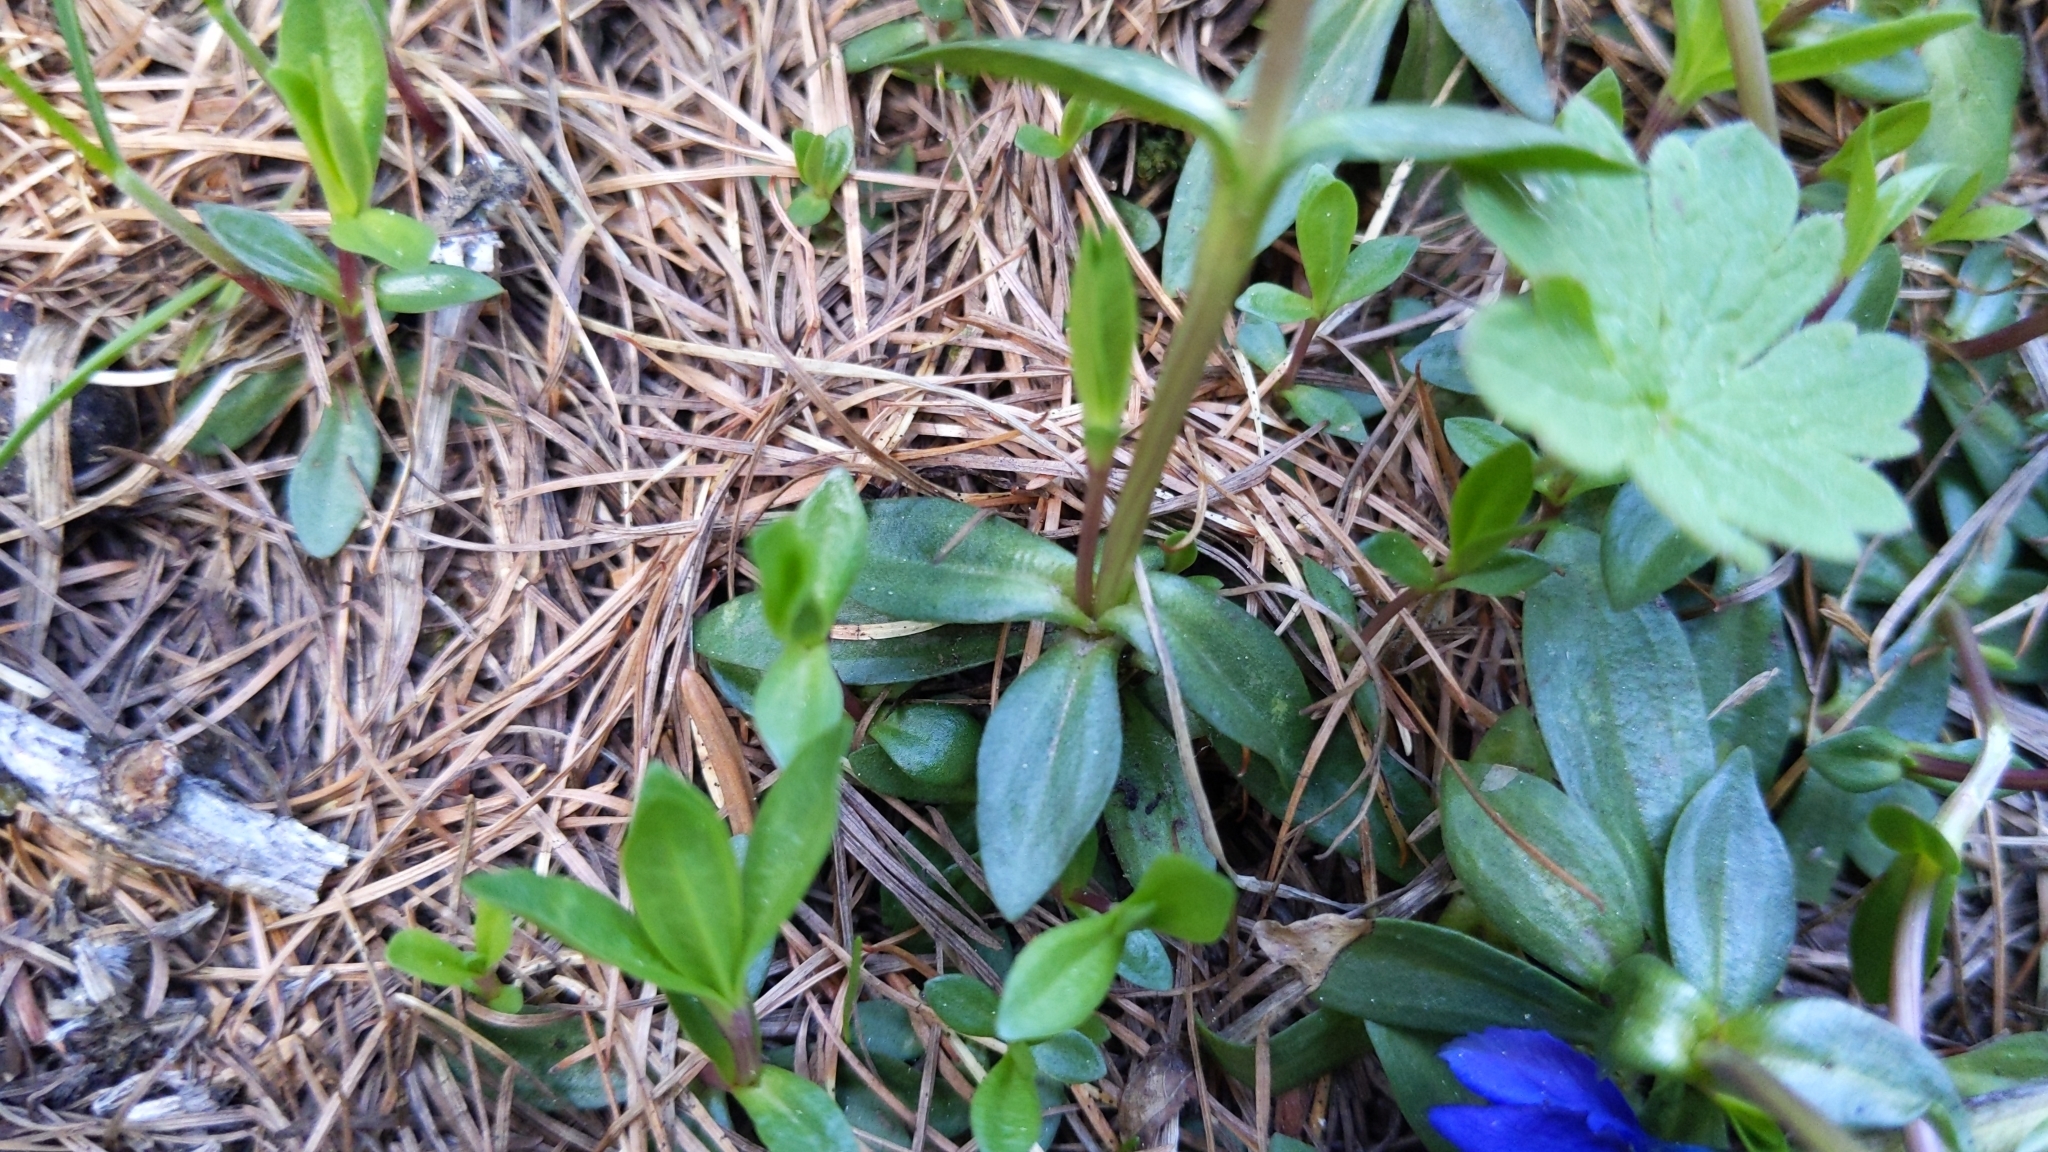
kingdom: Plantae
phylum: Tracheophyta
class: Magnoliopsida
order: Gentianales
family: Gentianaceae
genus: Gentiana
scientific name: Gentiana verna
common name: Spring gentian
